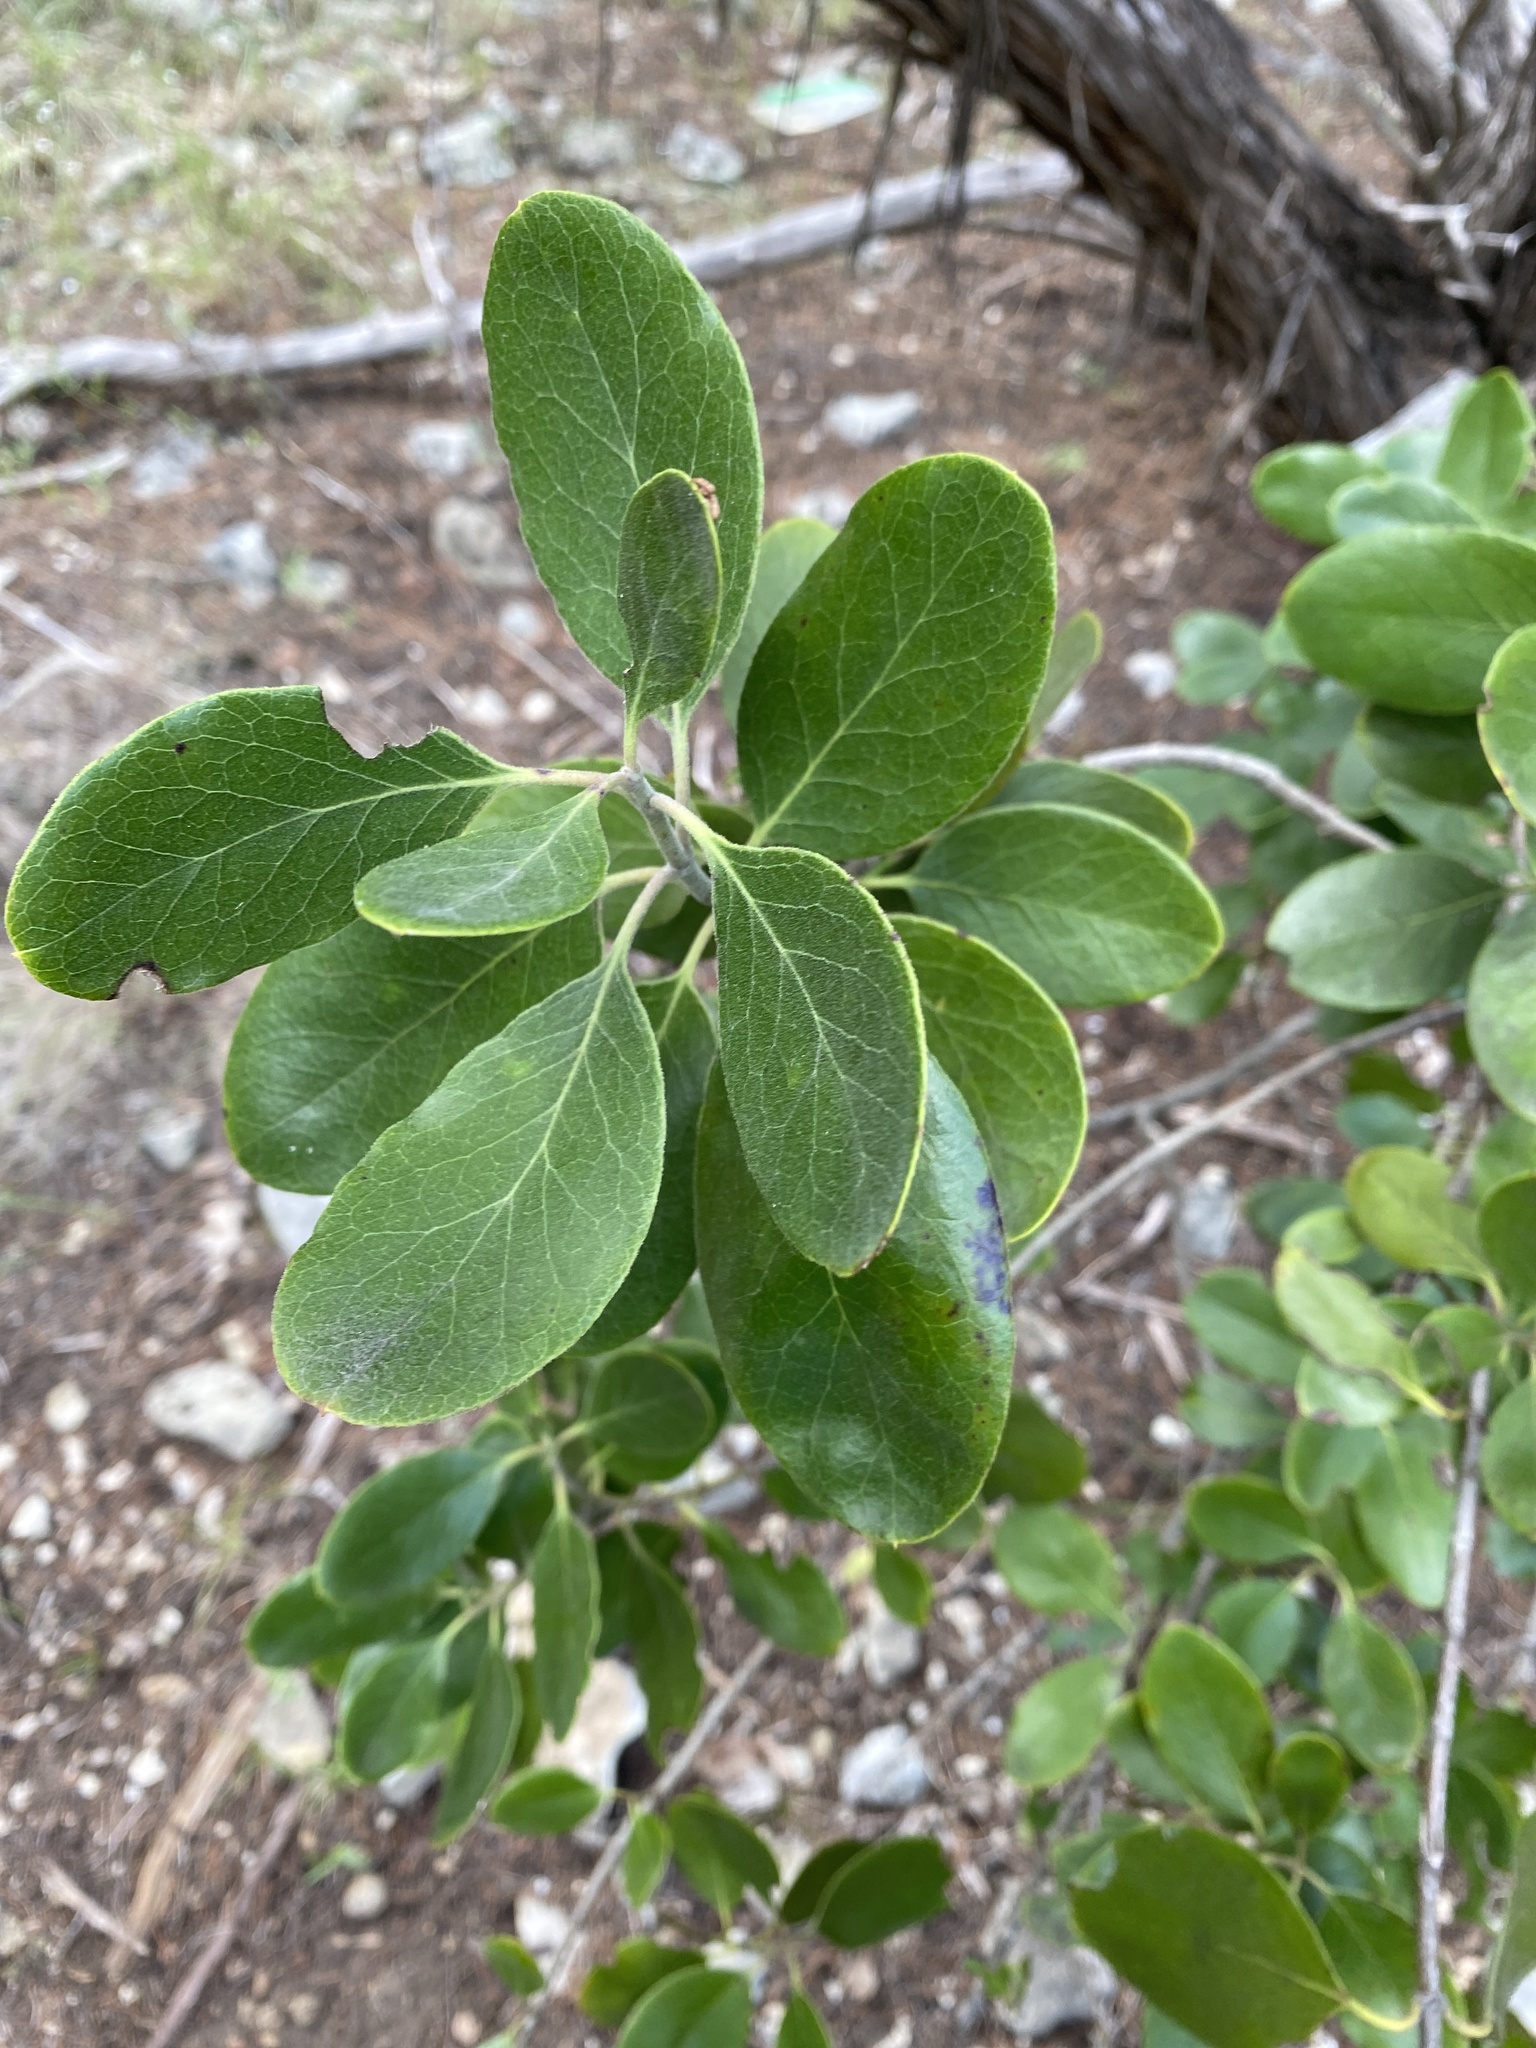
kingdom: Plantae
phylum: Tracheophyta
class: Magnoliopsida
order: Garryales
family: Garryaceae
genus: Garrya
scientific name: Garrya lindheimeri
